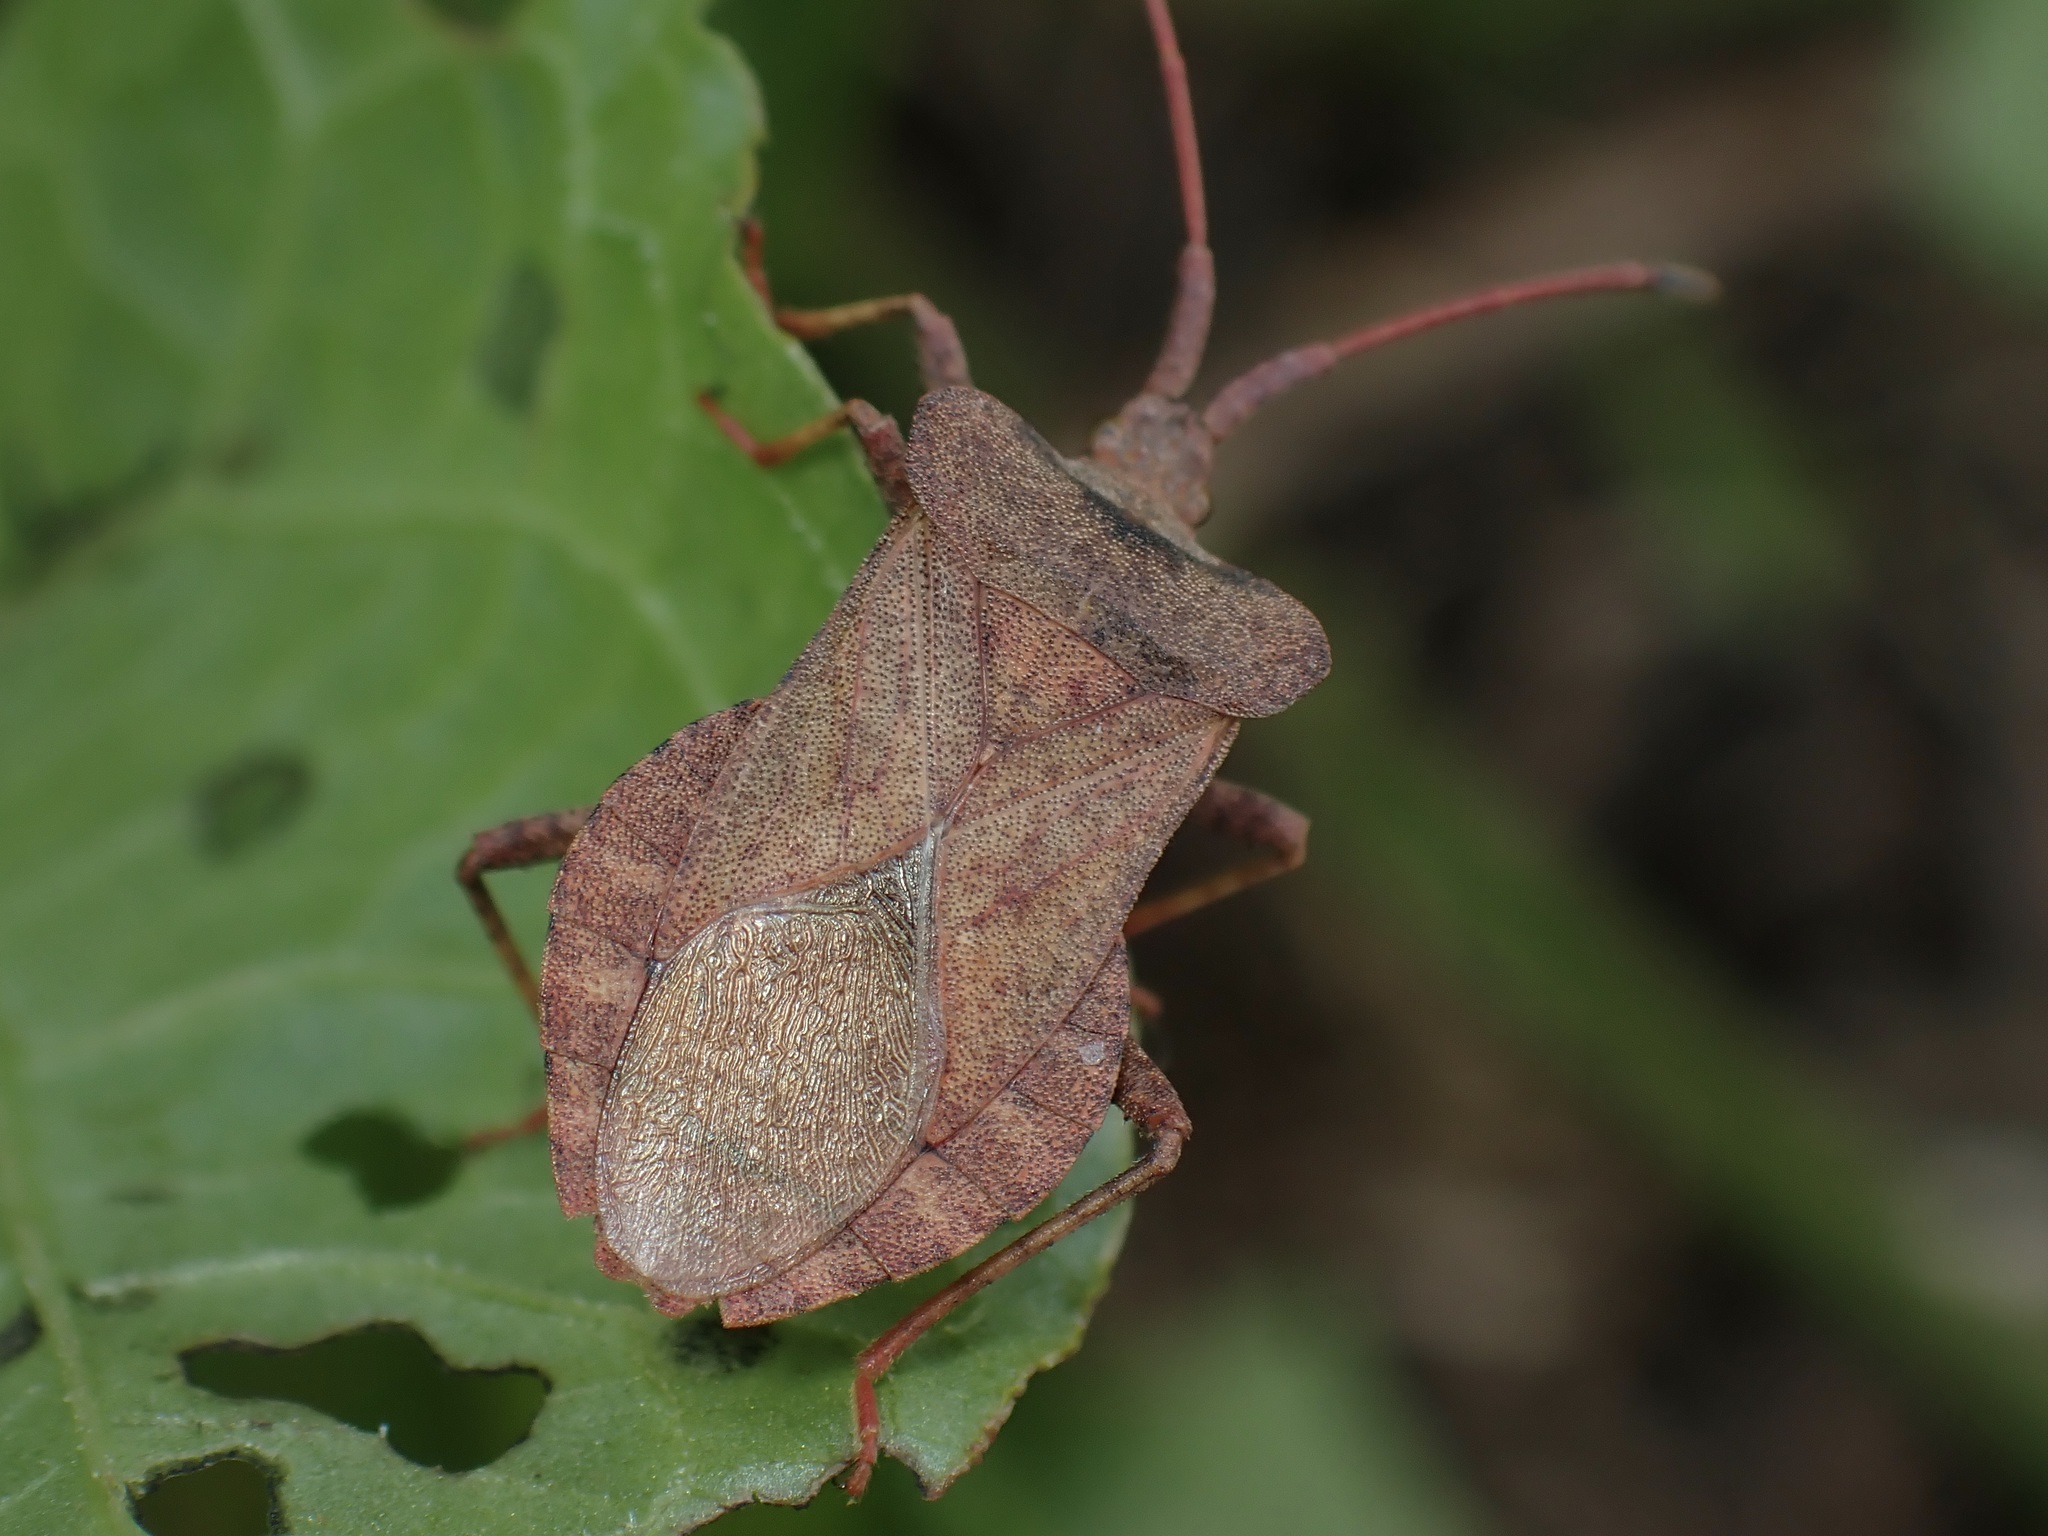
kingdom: Animalia
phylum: Arthropoda
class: Insecta
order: Hemiptera
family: Coreidae
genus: Coreus
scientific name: Coreus marginatus
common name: Dock bug
